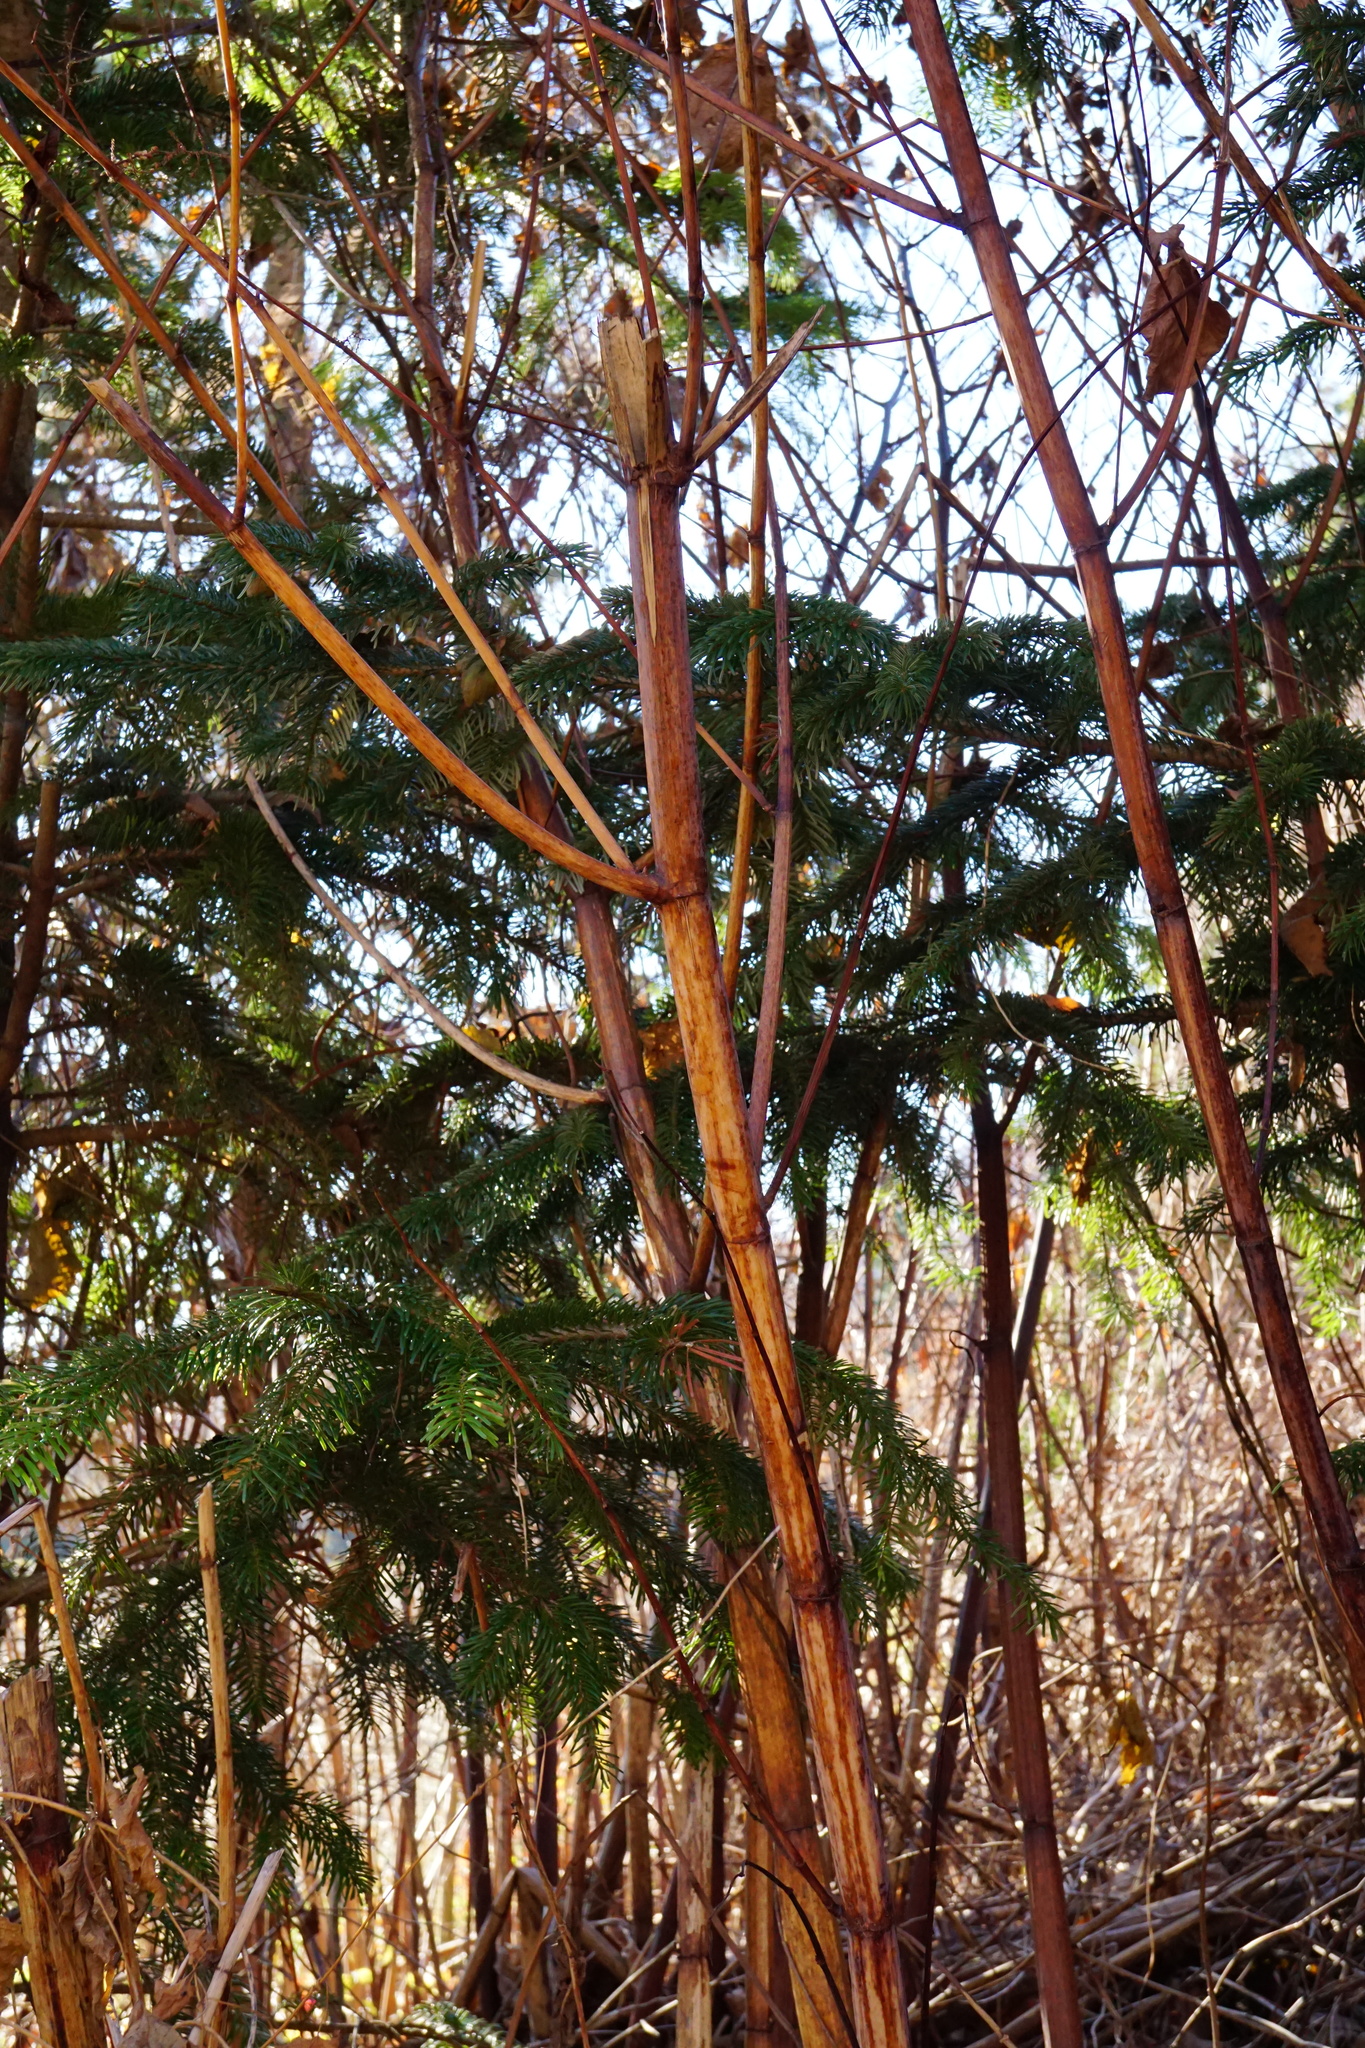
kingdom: Plantae
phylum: Tracheophyta
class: Magnoliopsida
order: Caryophyllales
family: Polygonaceae
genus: Reynoutria
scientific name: Reynoutria bohemica
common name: Bohemian knotweed
